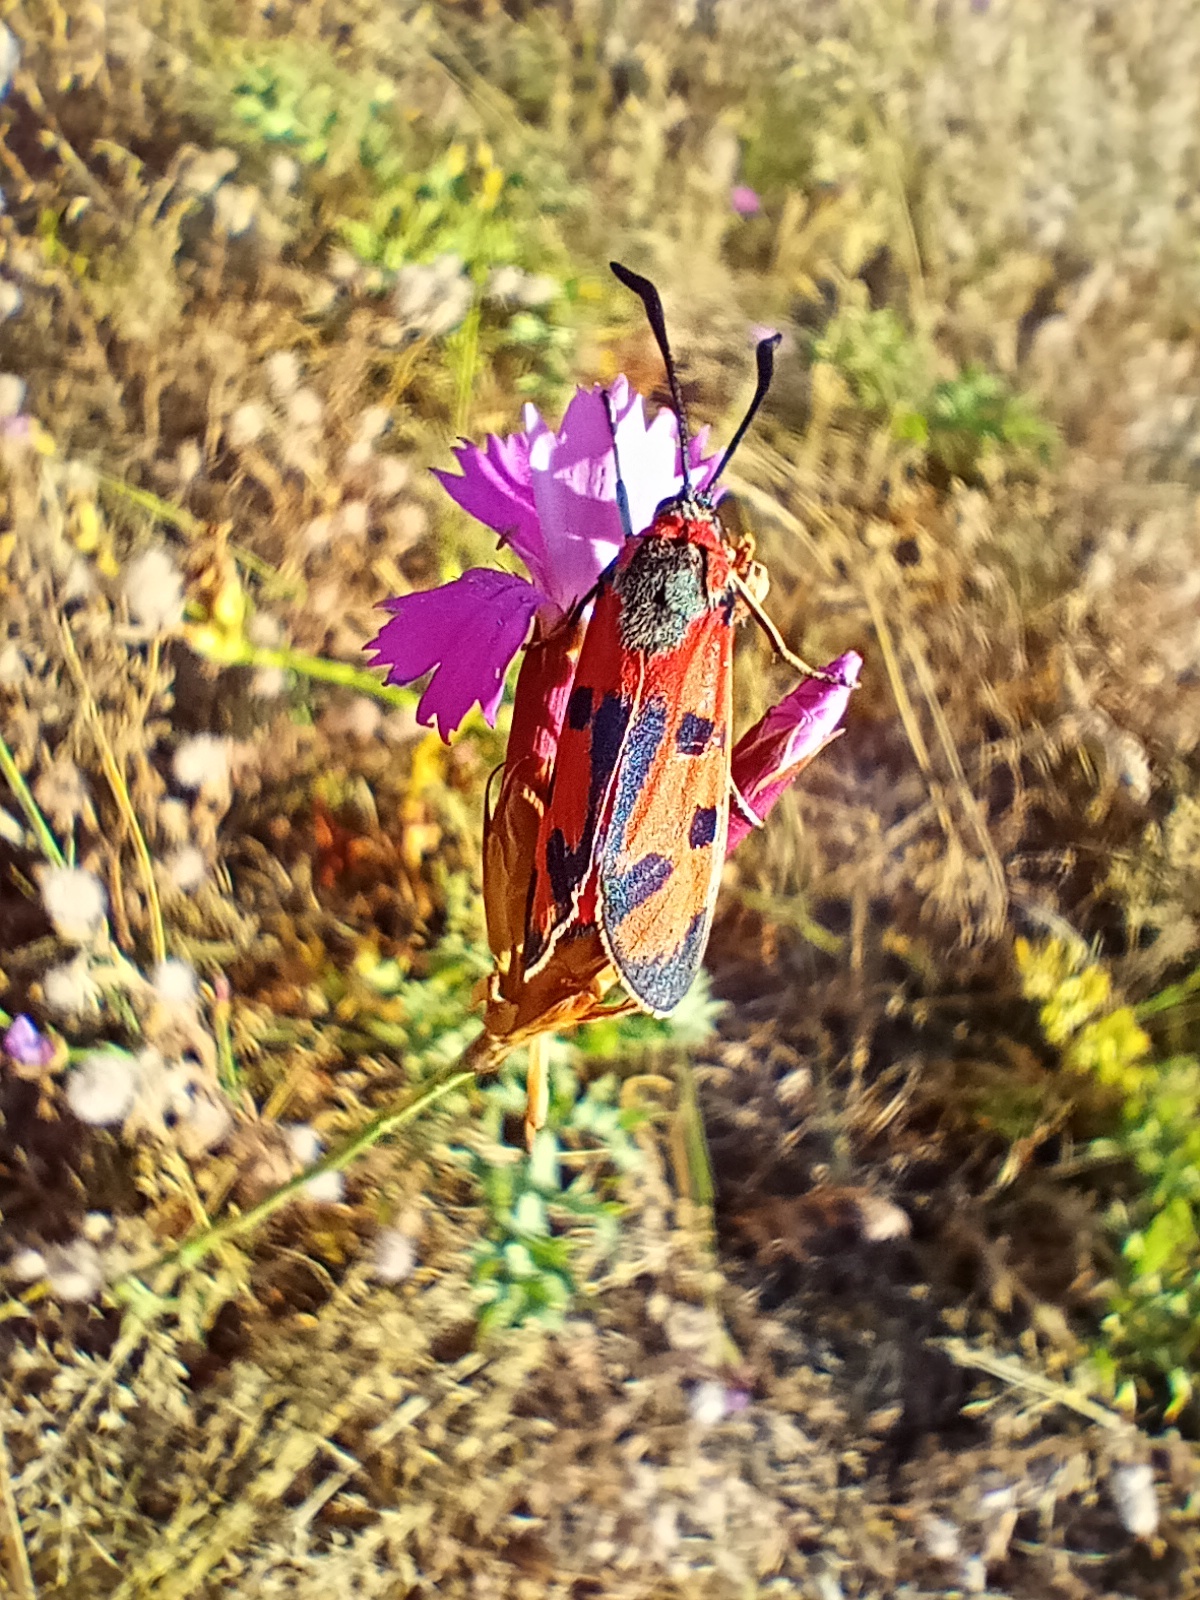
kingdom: Animalia
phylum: Arthropoda
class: Insecta
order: Lepidoptera
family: Zygaenidae
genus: Zygaena
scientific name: Zygaena laeta
